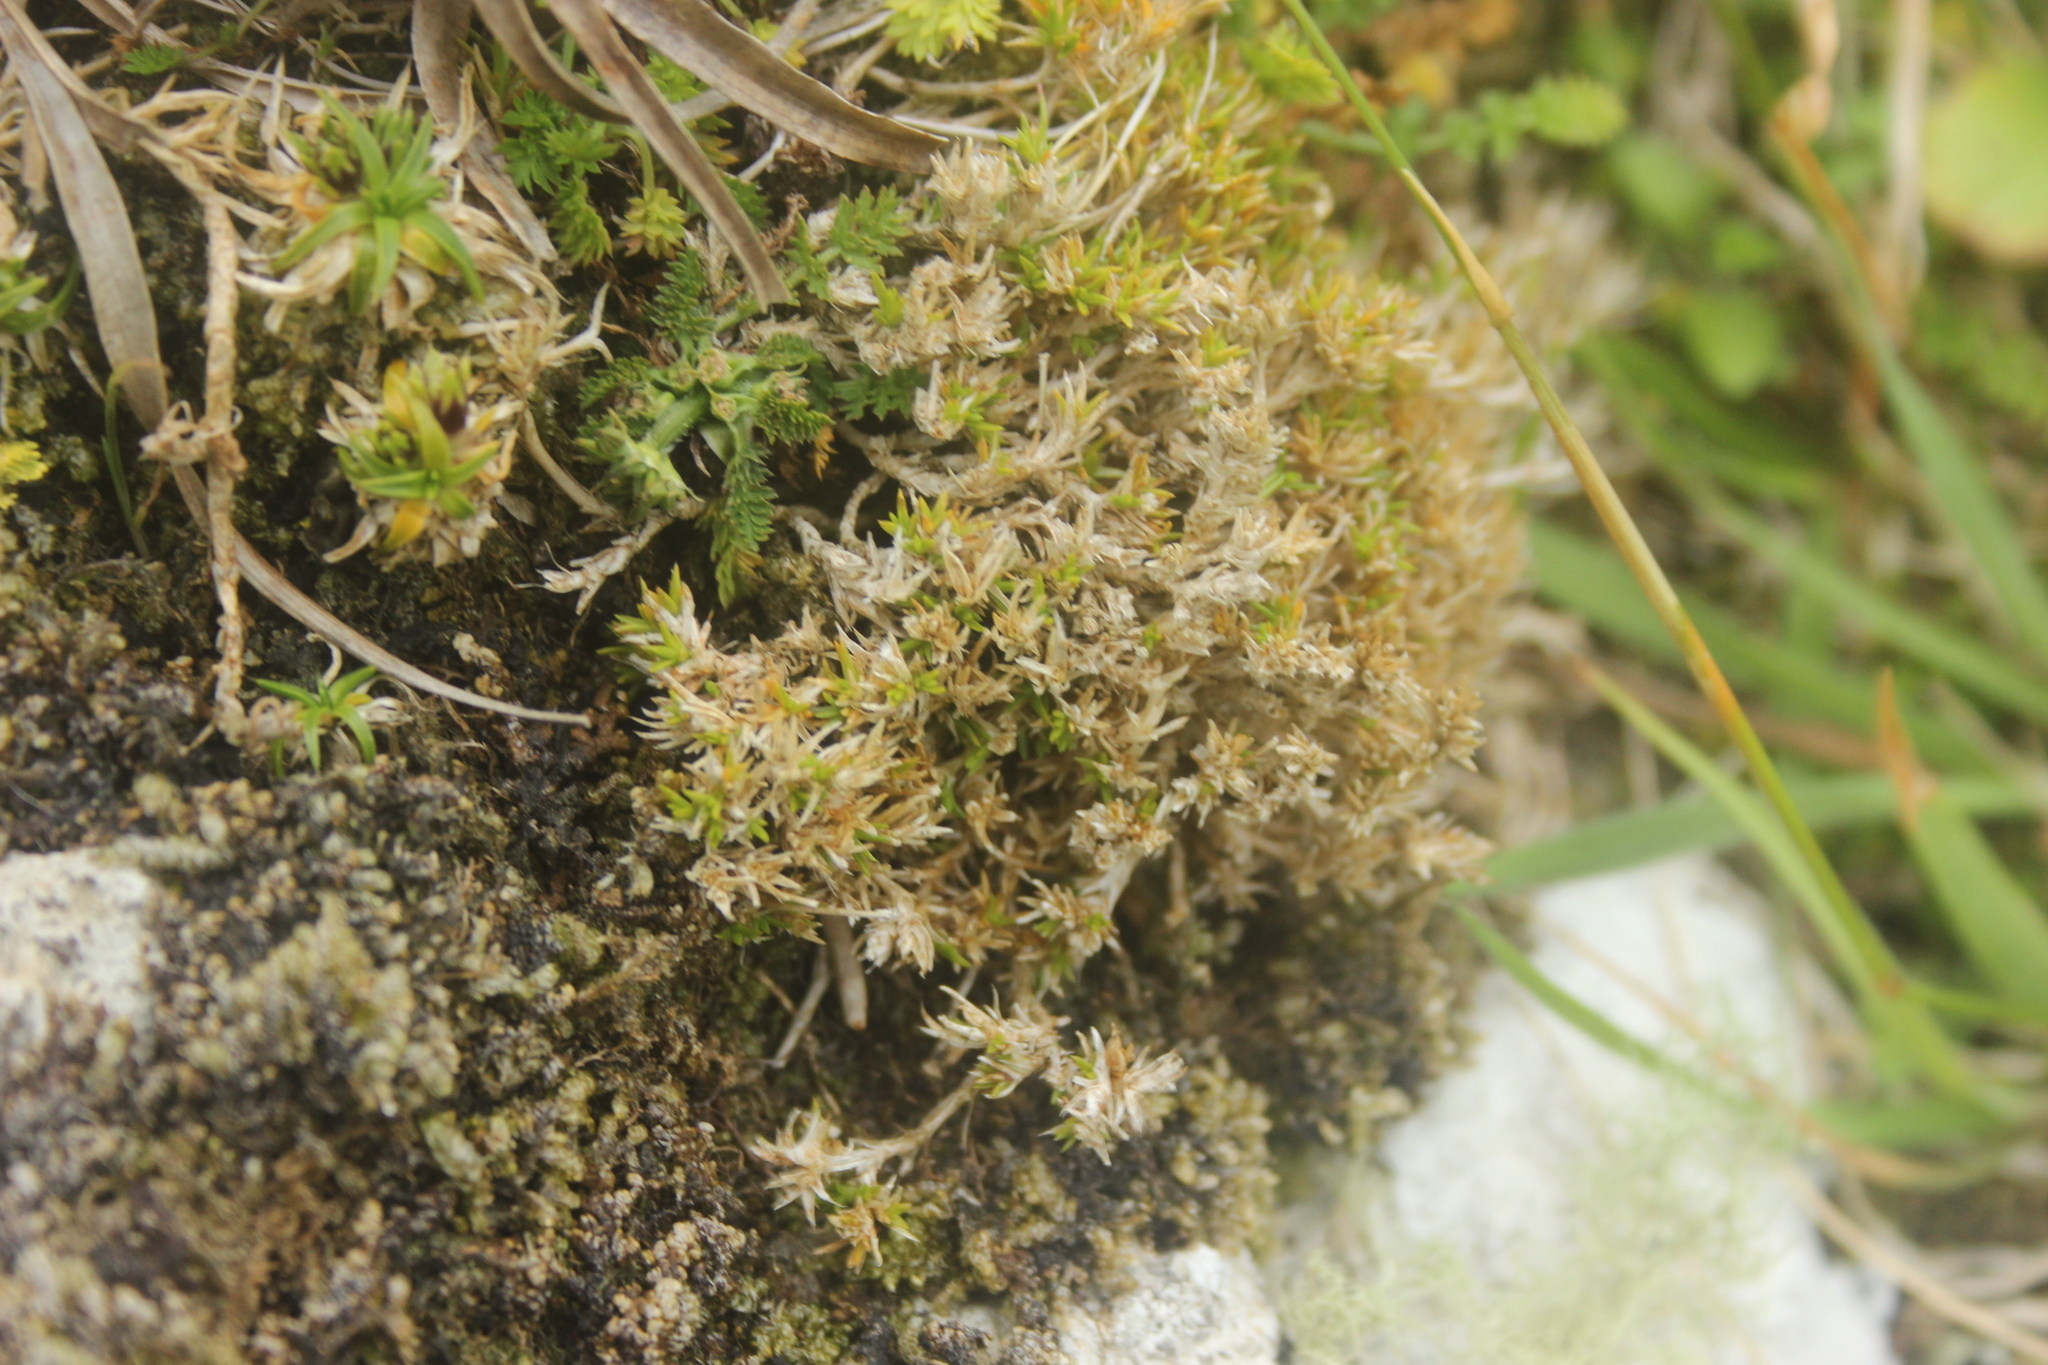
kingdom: Plantae
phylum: Tracheophyta
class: Magnoliopsida
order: Caryophyllales
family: Caryophyllaceae
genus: Scleranthus
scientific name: Scleranthus brockiei
